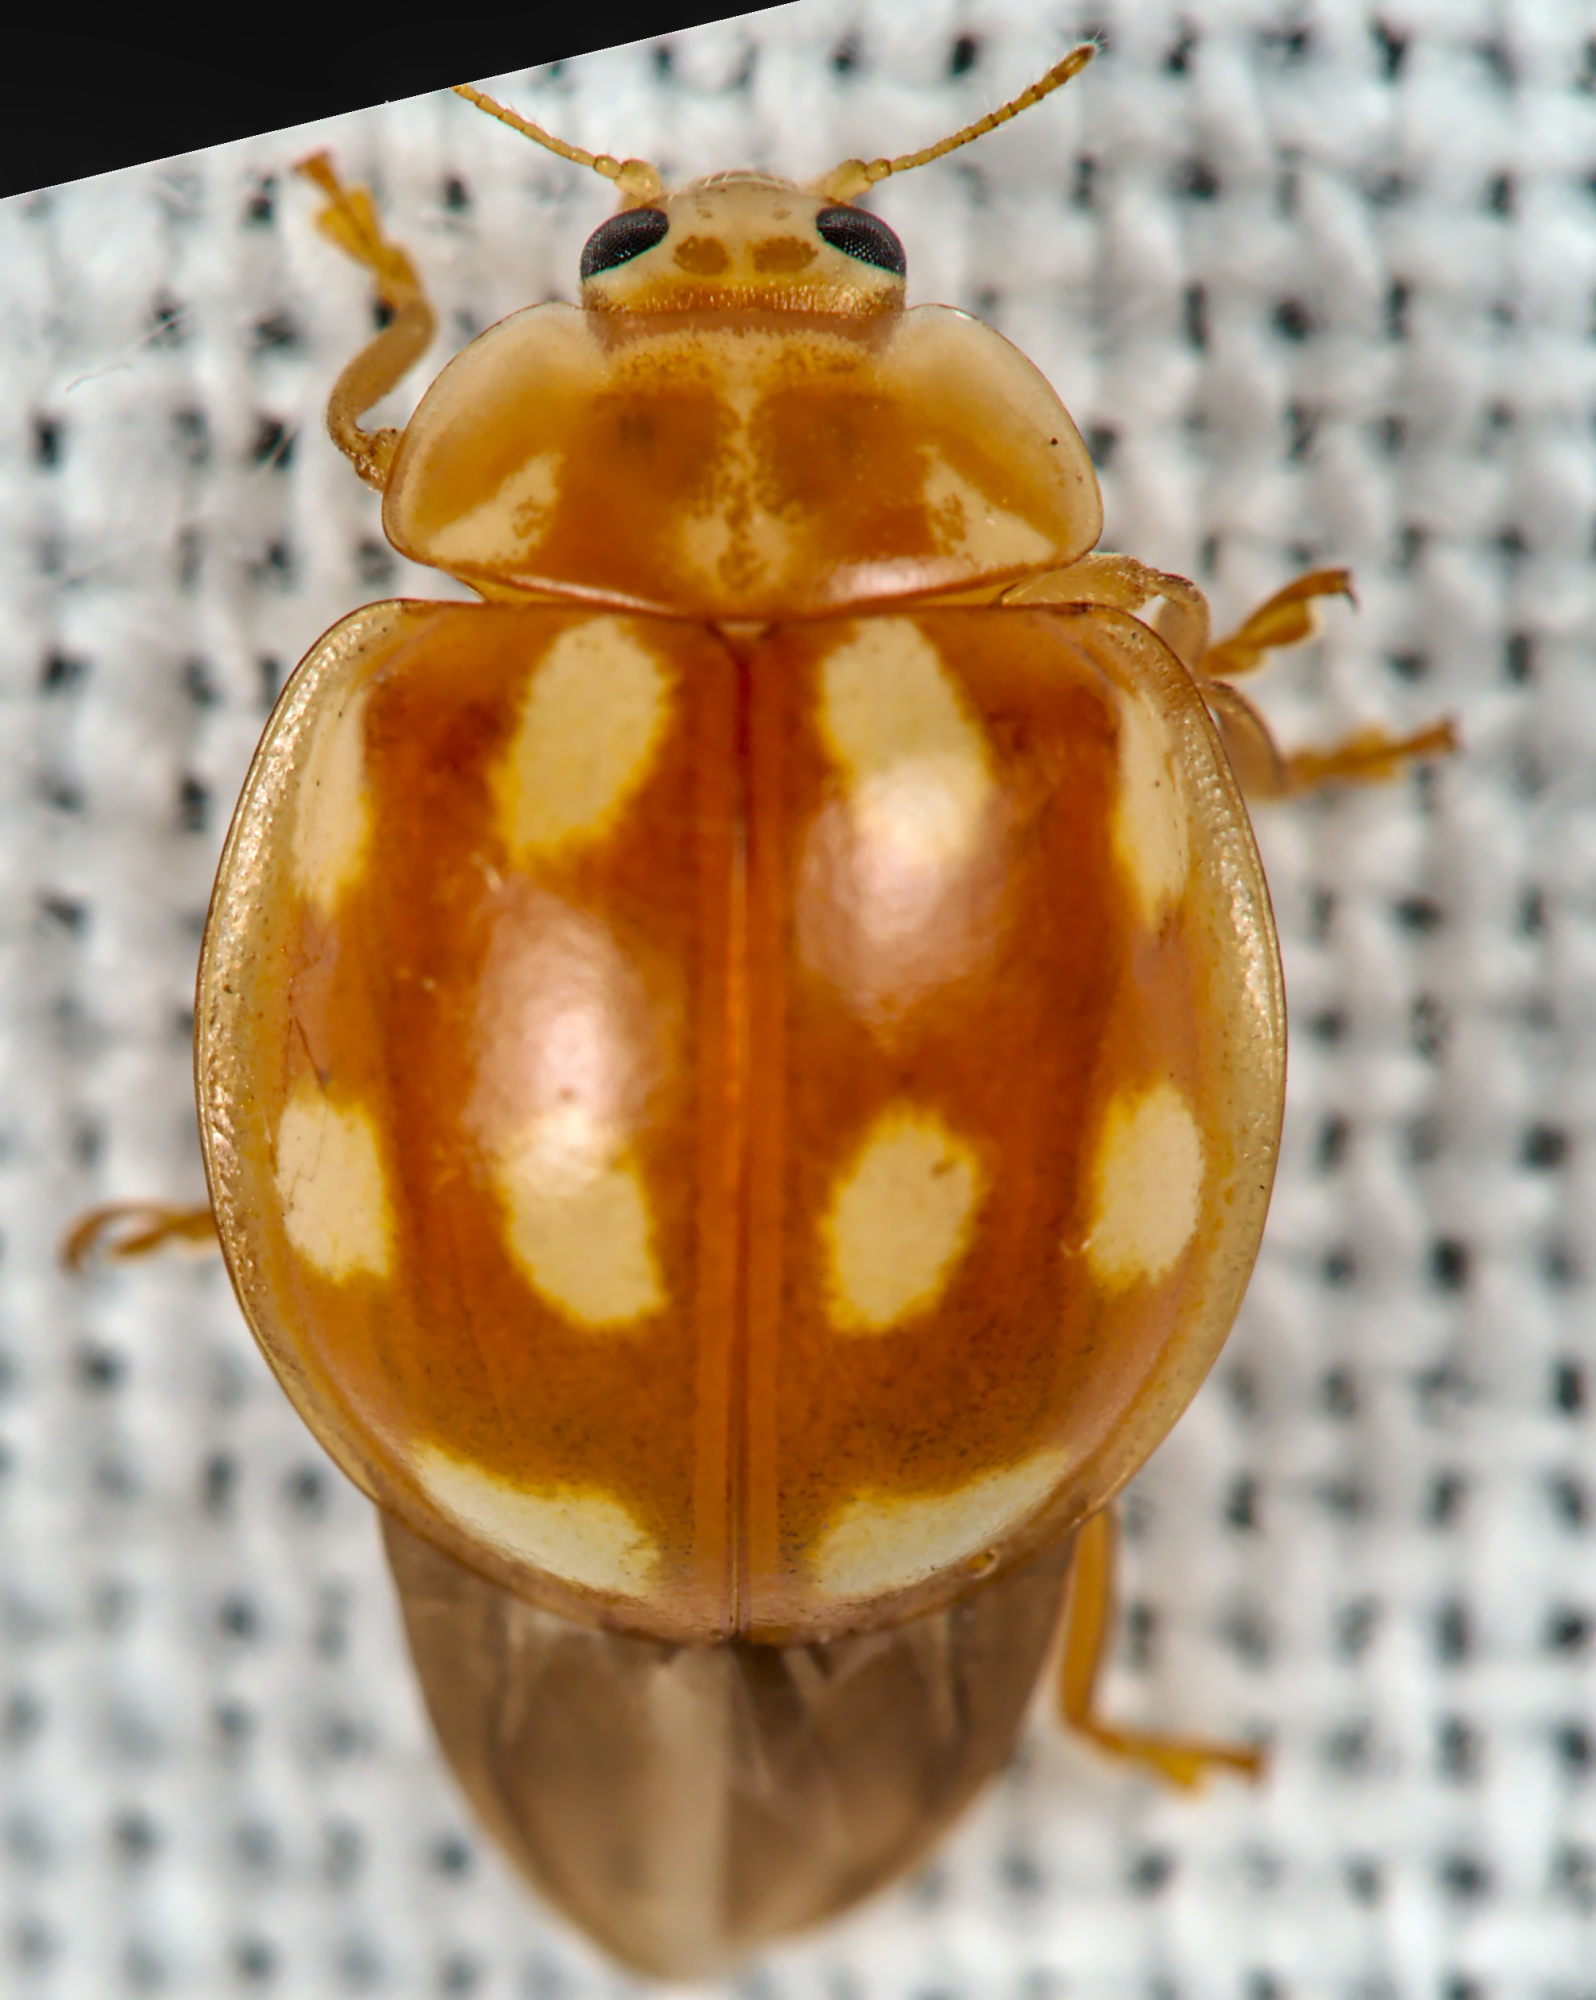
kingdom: Animalia
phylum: Arthropoda
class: Insecta
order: Coleoptera
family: Coccinellidae
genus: Calvia
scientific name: Calvia decemguttata
